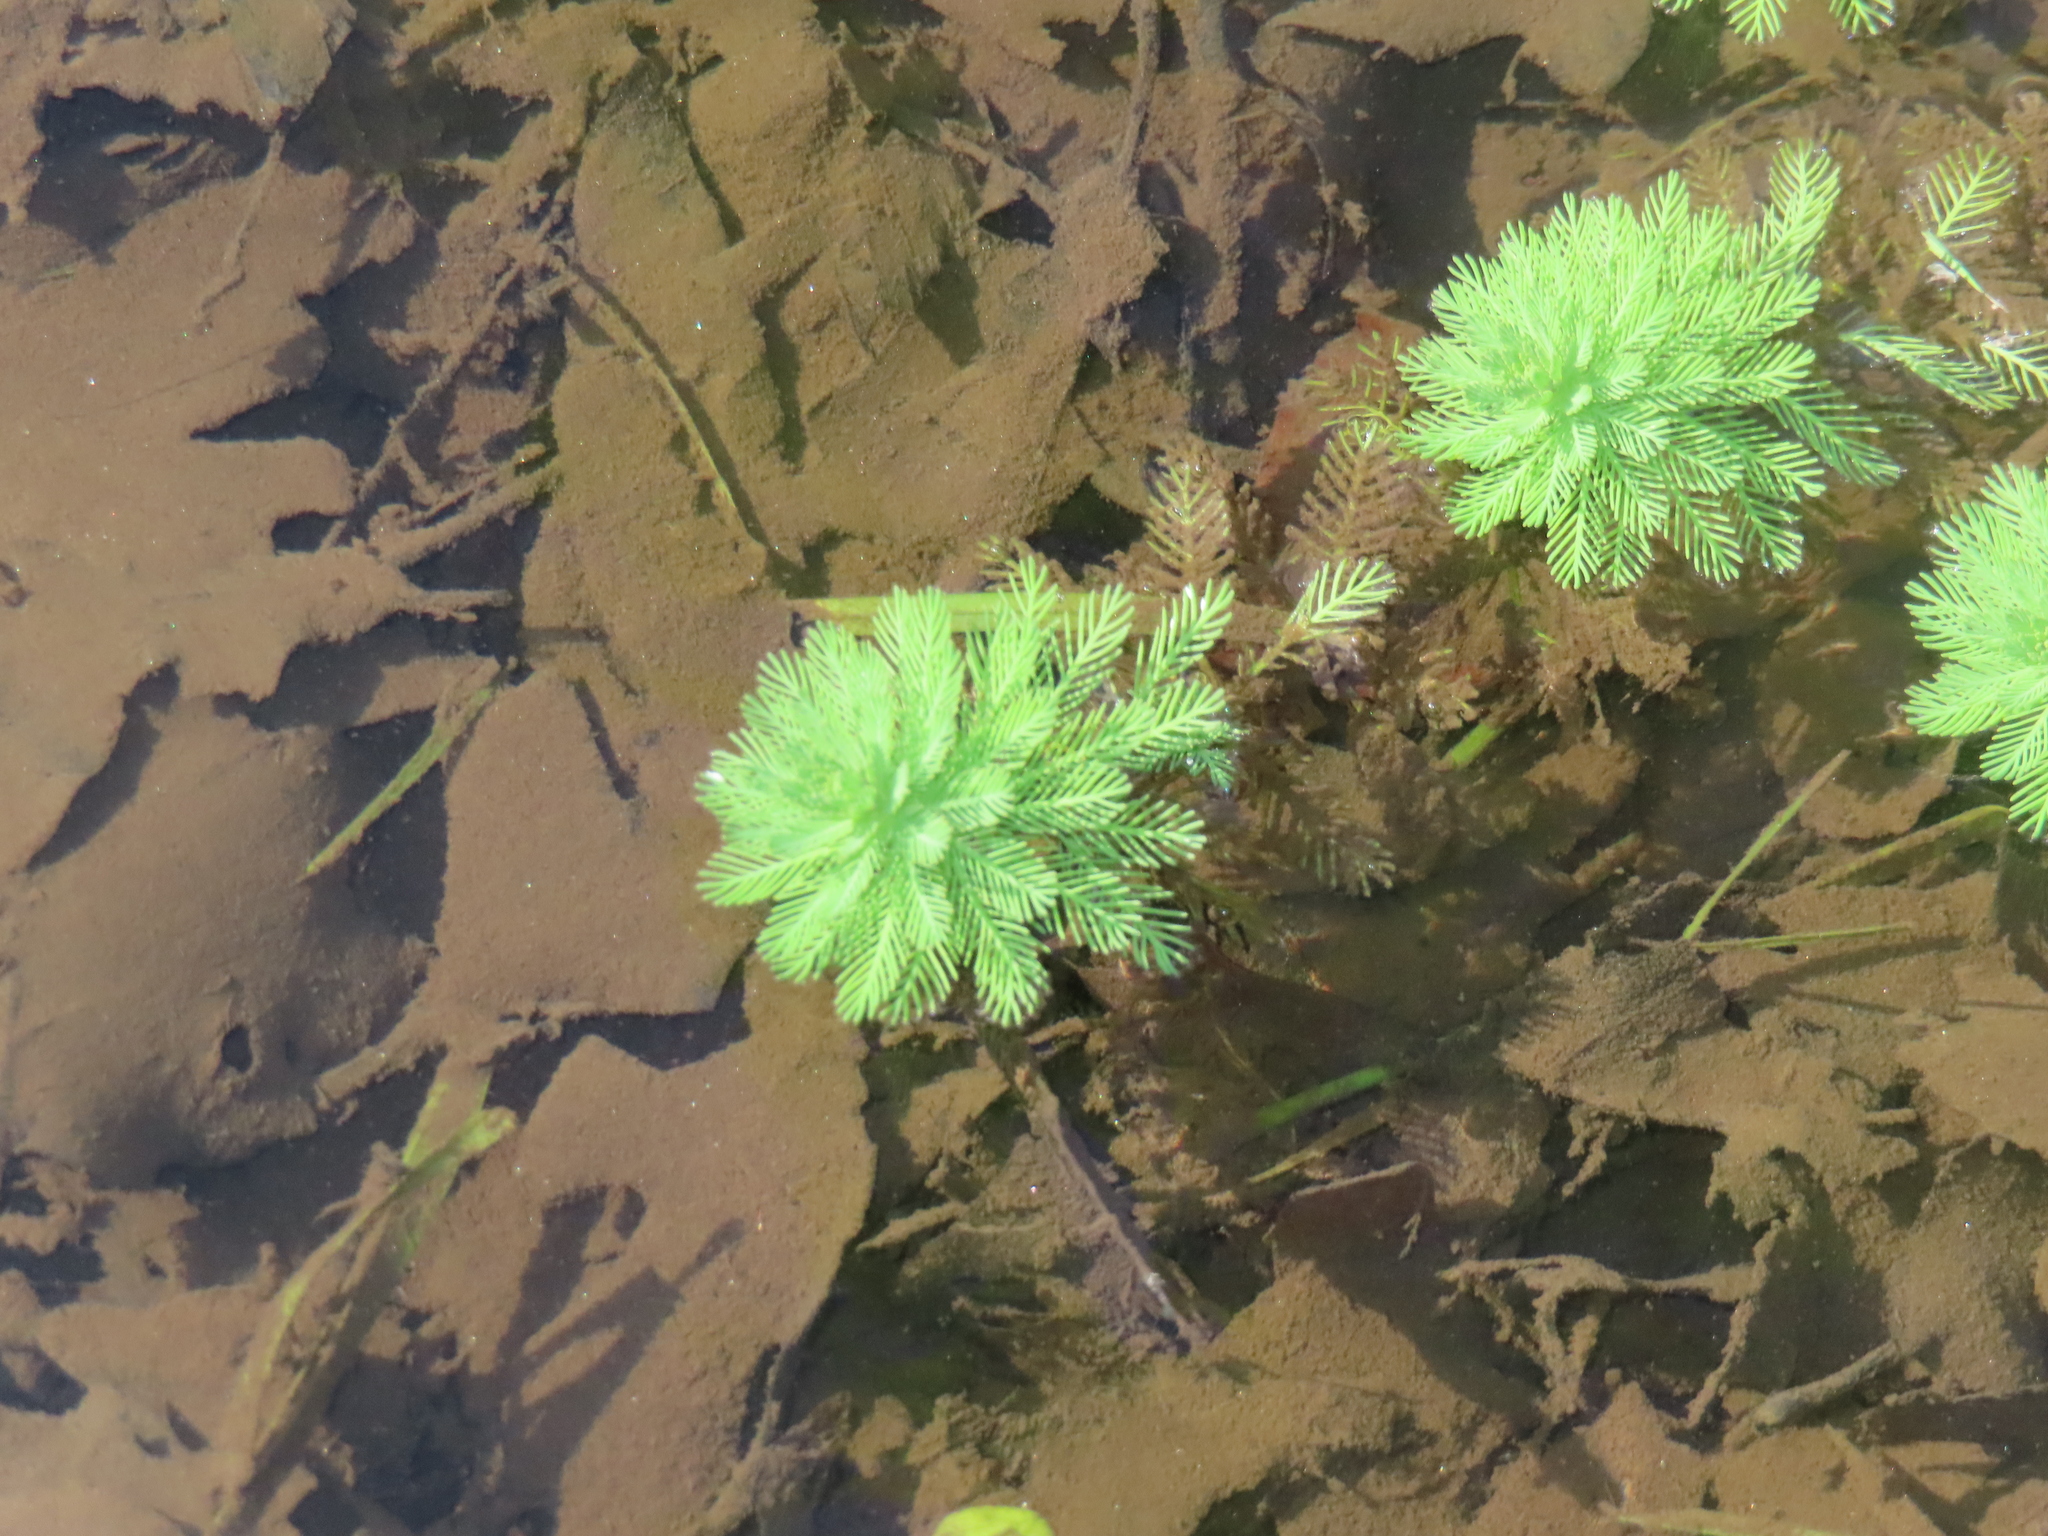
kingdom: Plantae
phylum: Tracheophyta
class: Magnoliopsida
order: Saxifragales
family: Haloragaceae
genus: Myriophyllum
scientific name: Myriophyllum aquaticum
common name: Parrot's feather
